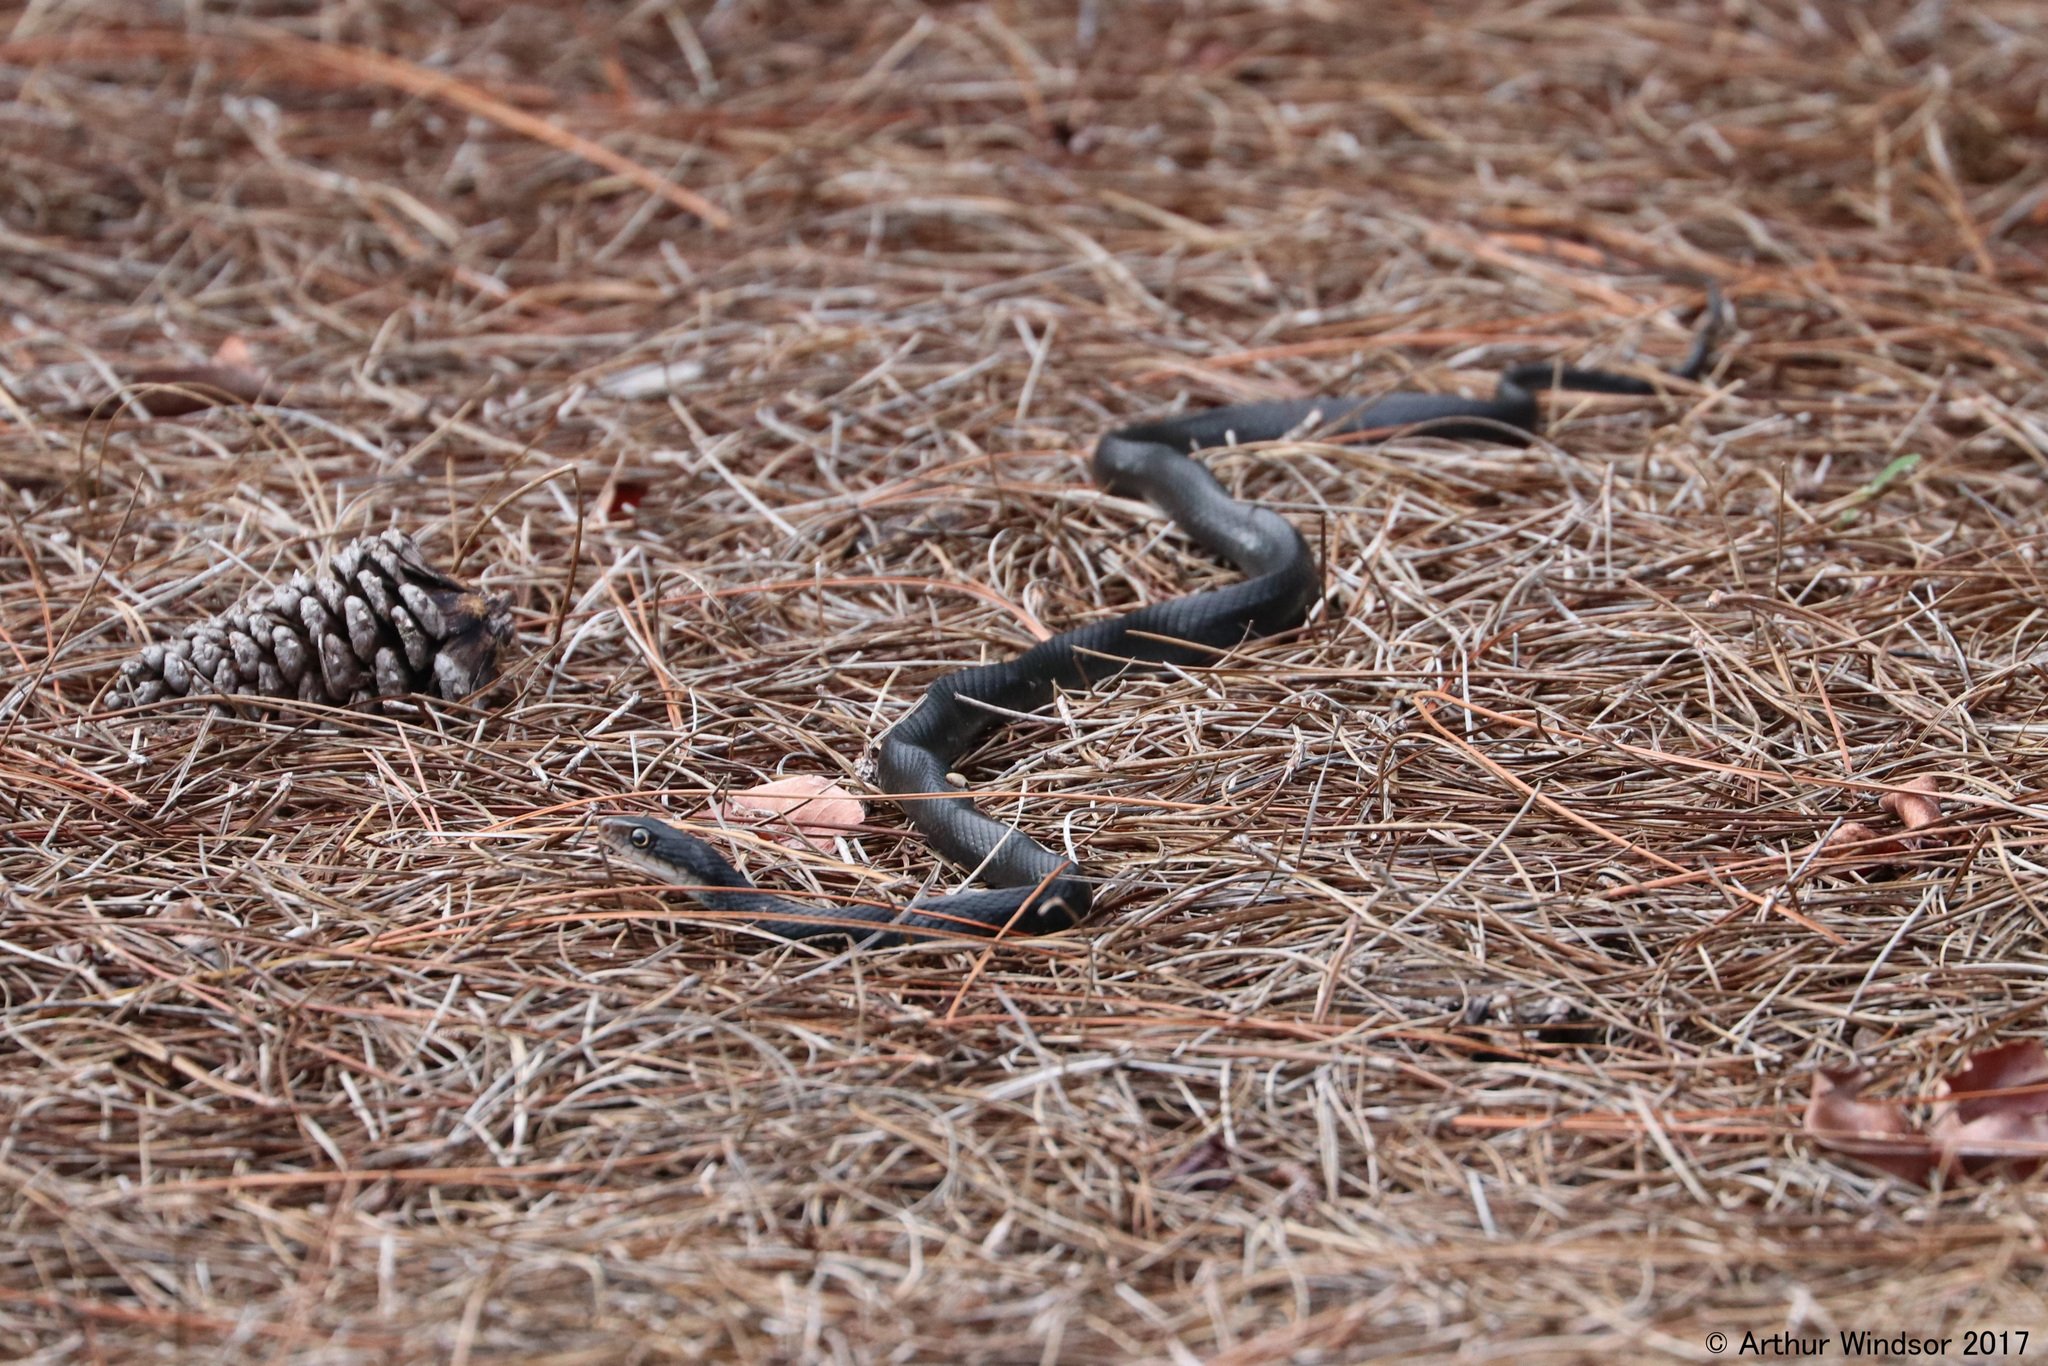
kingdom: Animalia
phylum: Chordata
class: Squamata
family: Colubridae
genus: Coluber
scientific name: Coluber constrictor
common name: Eastern racer
